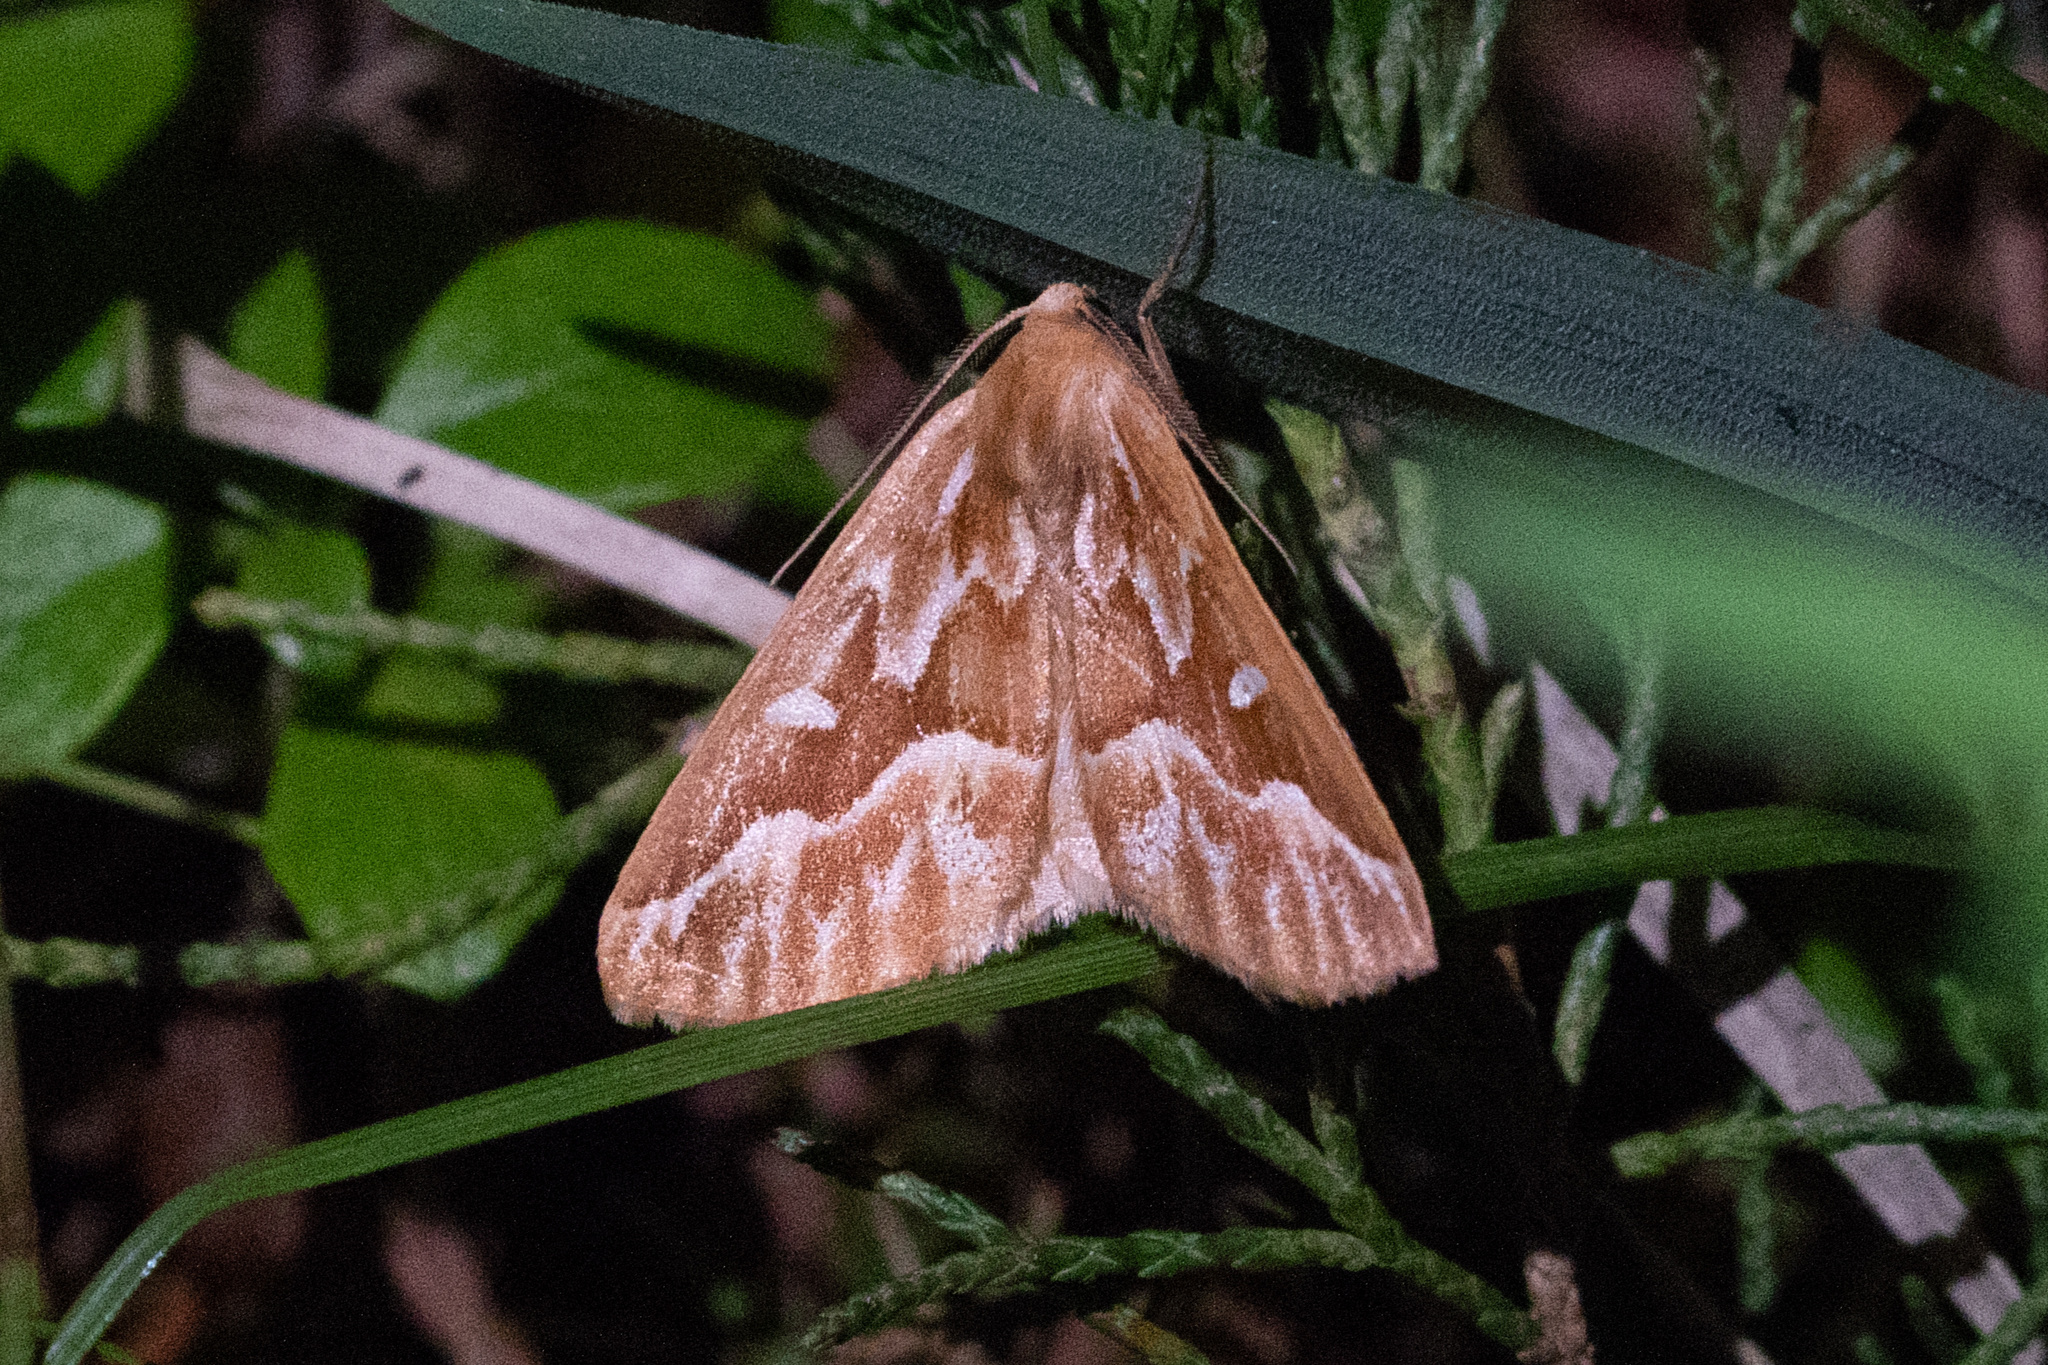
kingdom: Animalia
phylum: Arthropoda
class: Insecta
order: Lepidoptera
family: Geometridae
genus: Caripeta
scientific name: Caripeta piniata
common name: Northern pine looper moth
